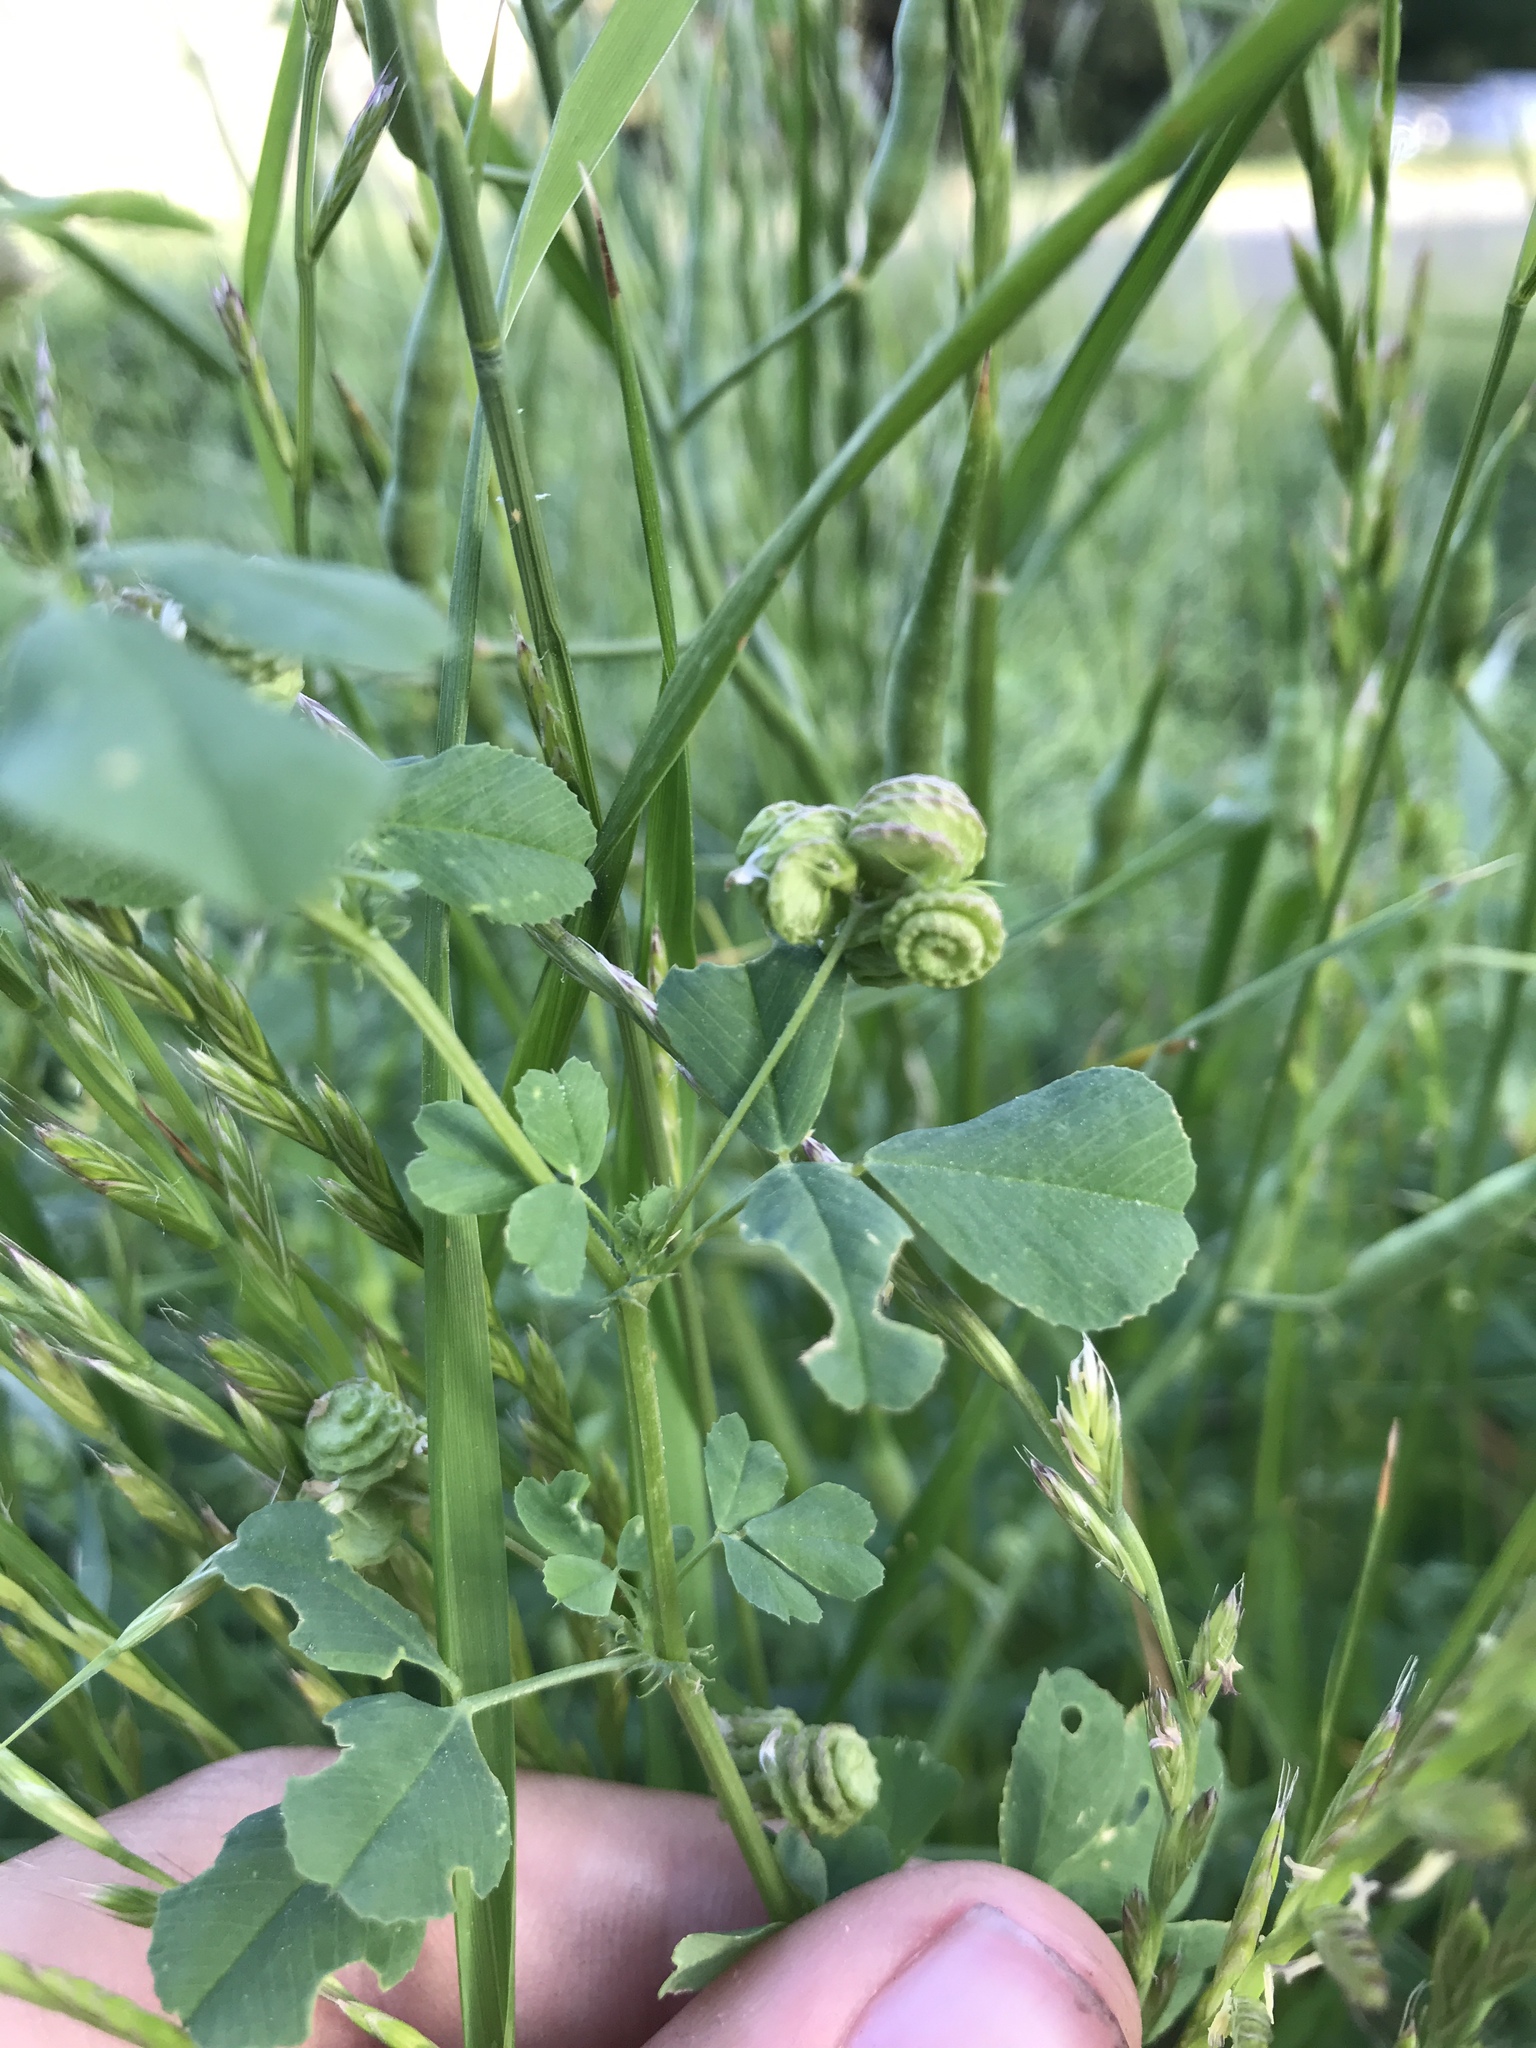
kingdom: Plantae
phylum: Tracheophyta
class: Magnoliopsida
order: Fabales
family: Fabaceae
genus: Medicago
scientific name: Medicago polymorpha
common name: Burclover
